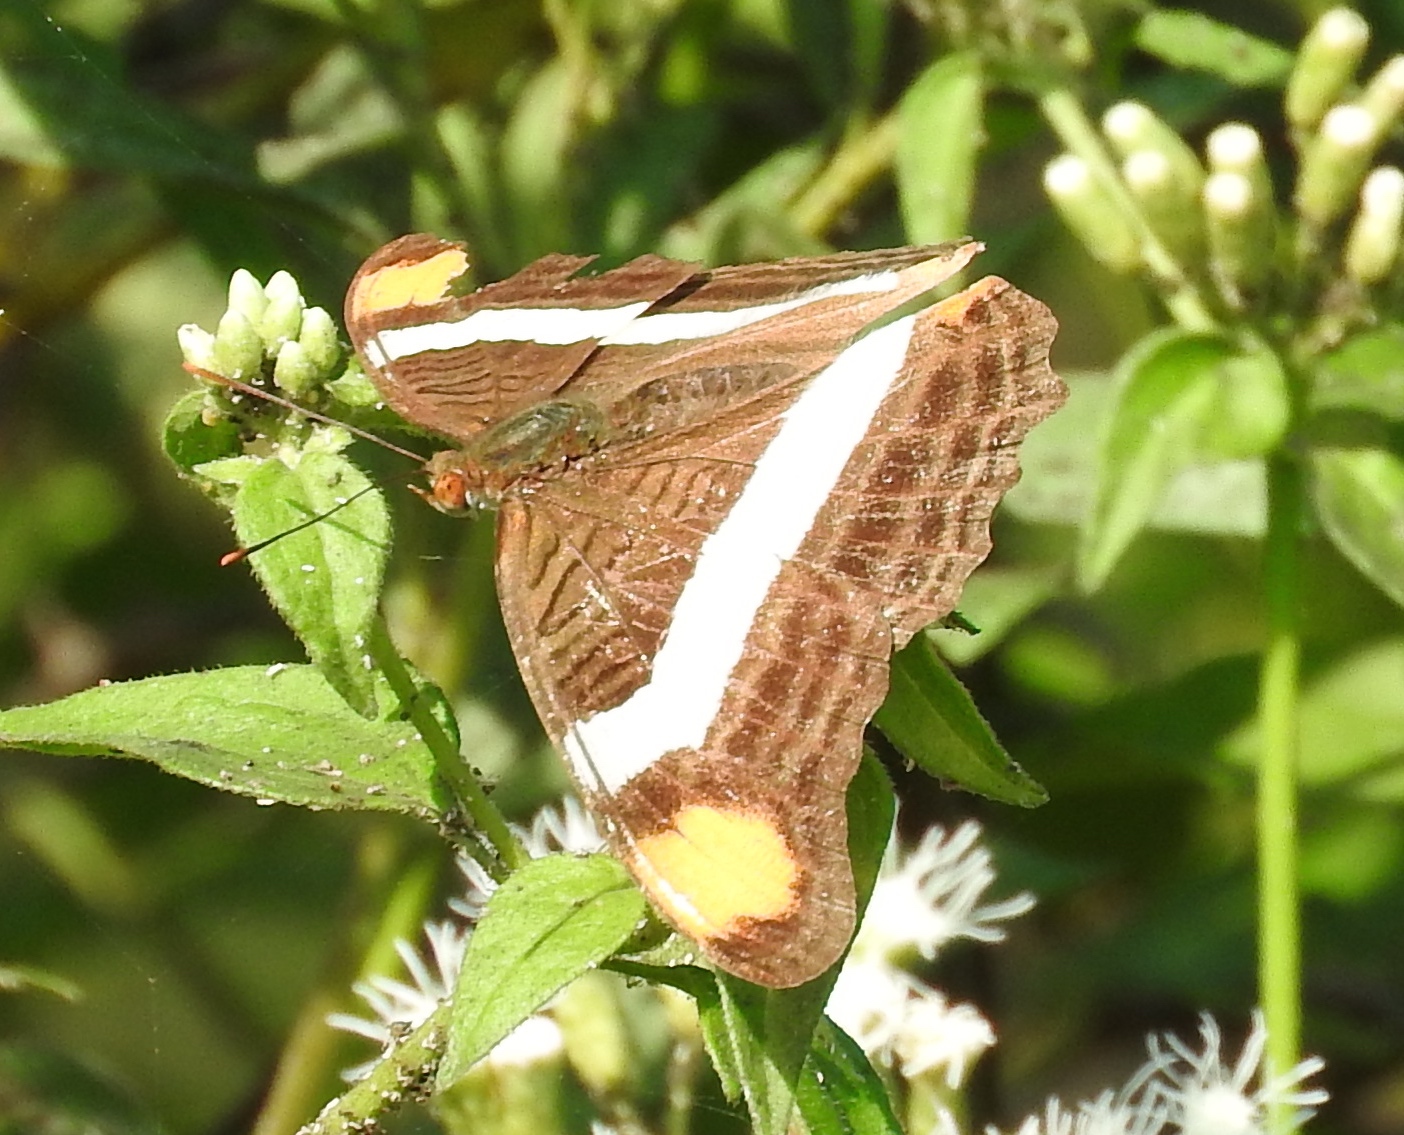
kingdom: Animalia
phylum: Arthropoda
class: Insecta
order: Lepidoptera
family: Nymphalidae
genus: Limenitis
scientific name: Limenitis fessonia
